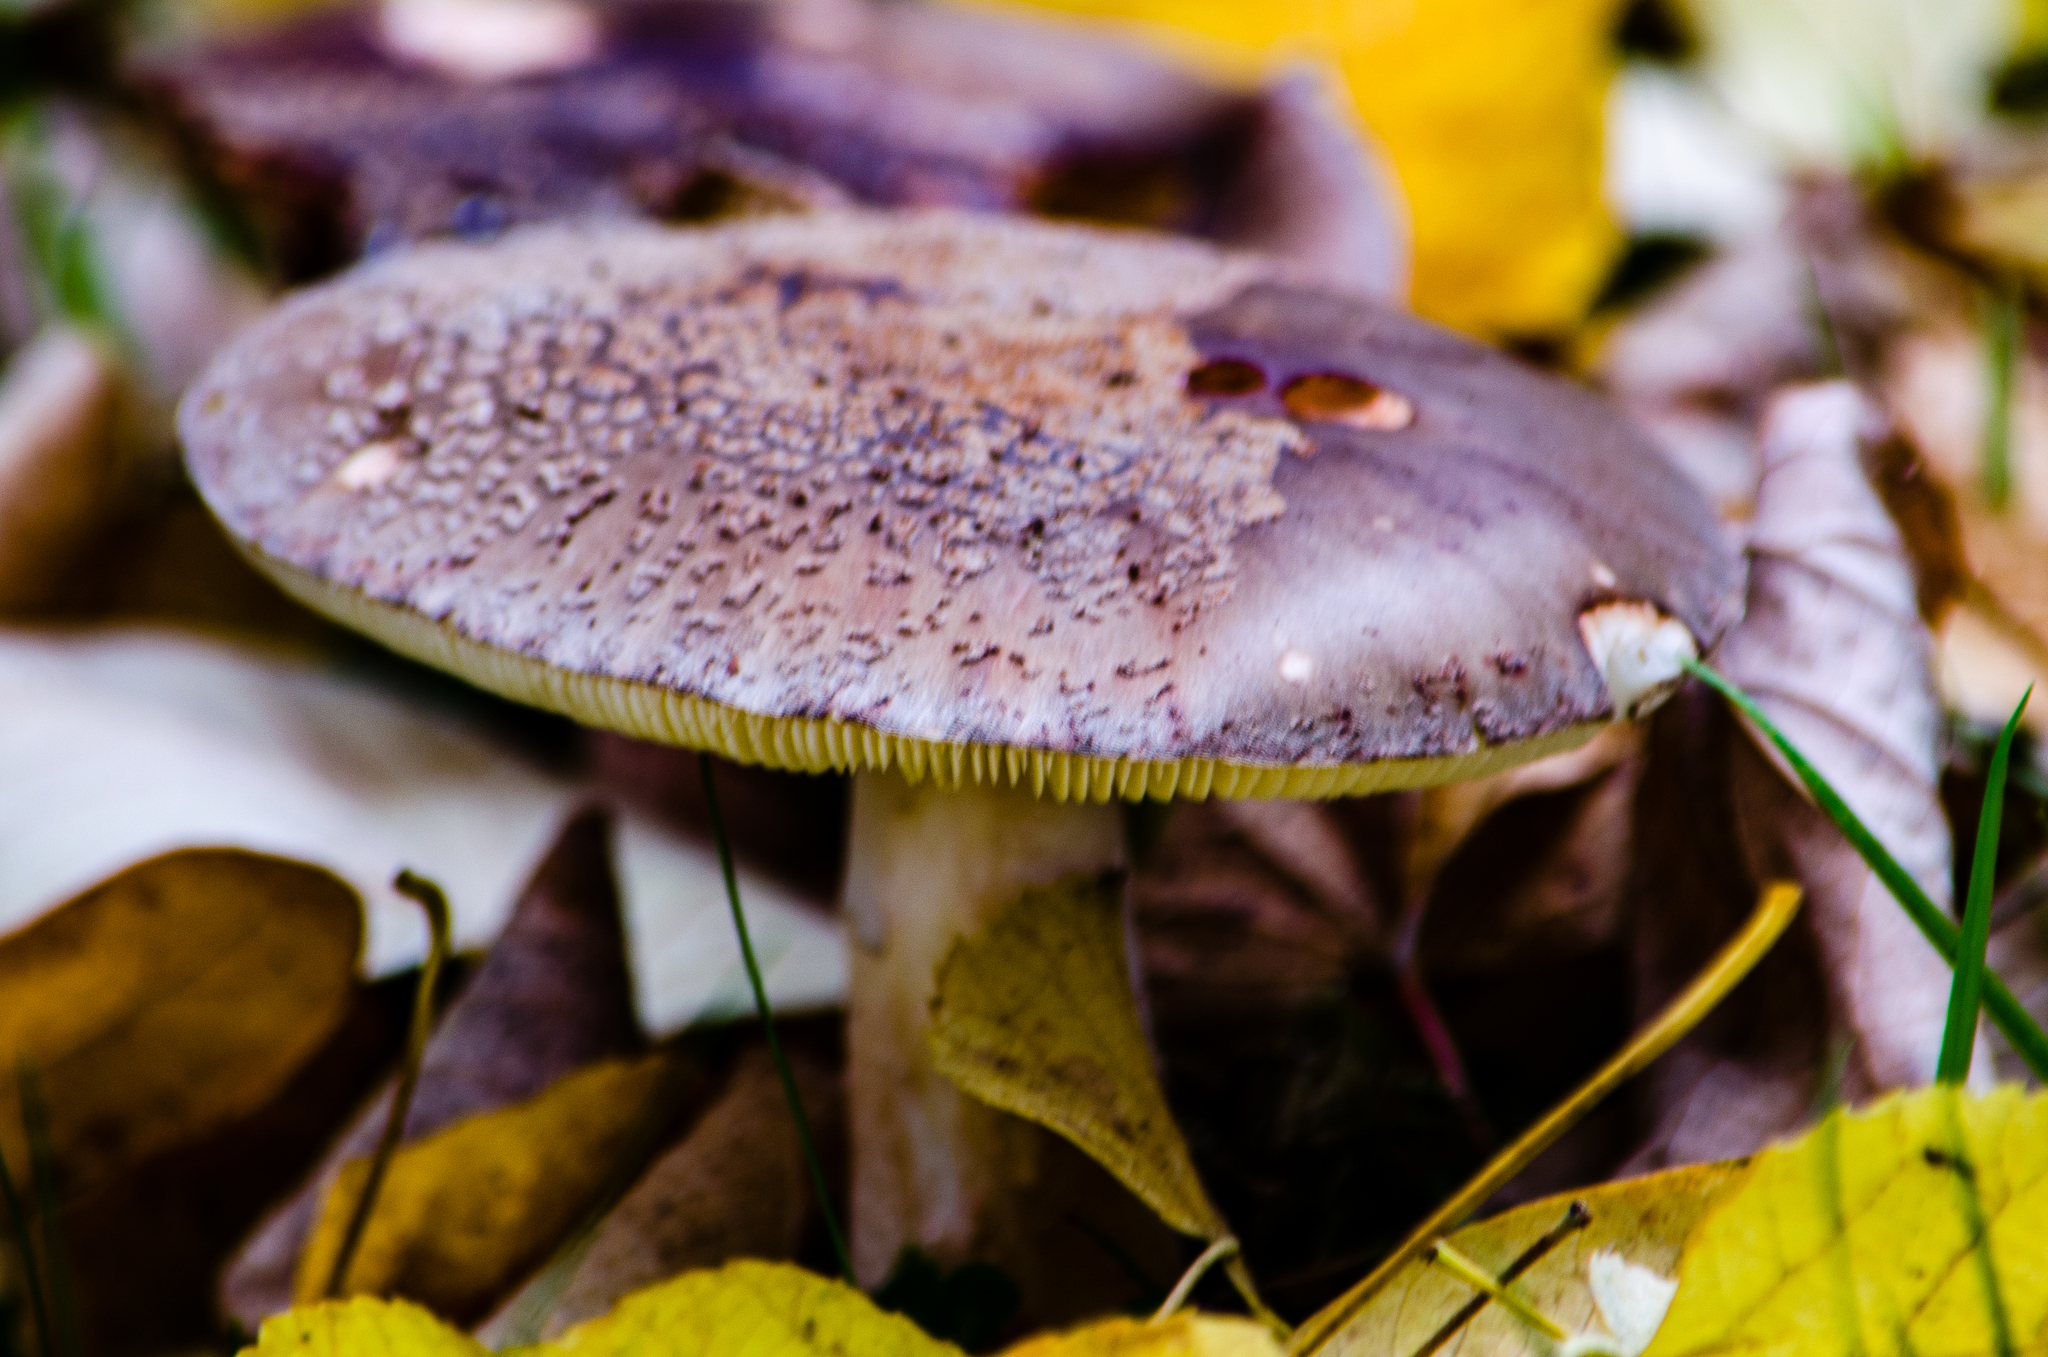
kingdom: Fungi
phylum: Basidiomycota
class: Agaricomycetes
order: Agaricales
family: Amanitaceae
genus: Amanita
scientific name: Amanita rubescens
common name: Blusher
